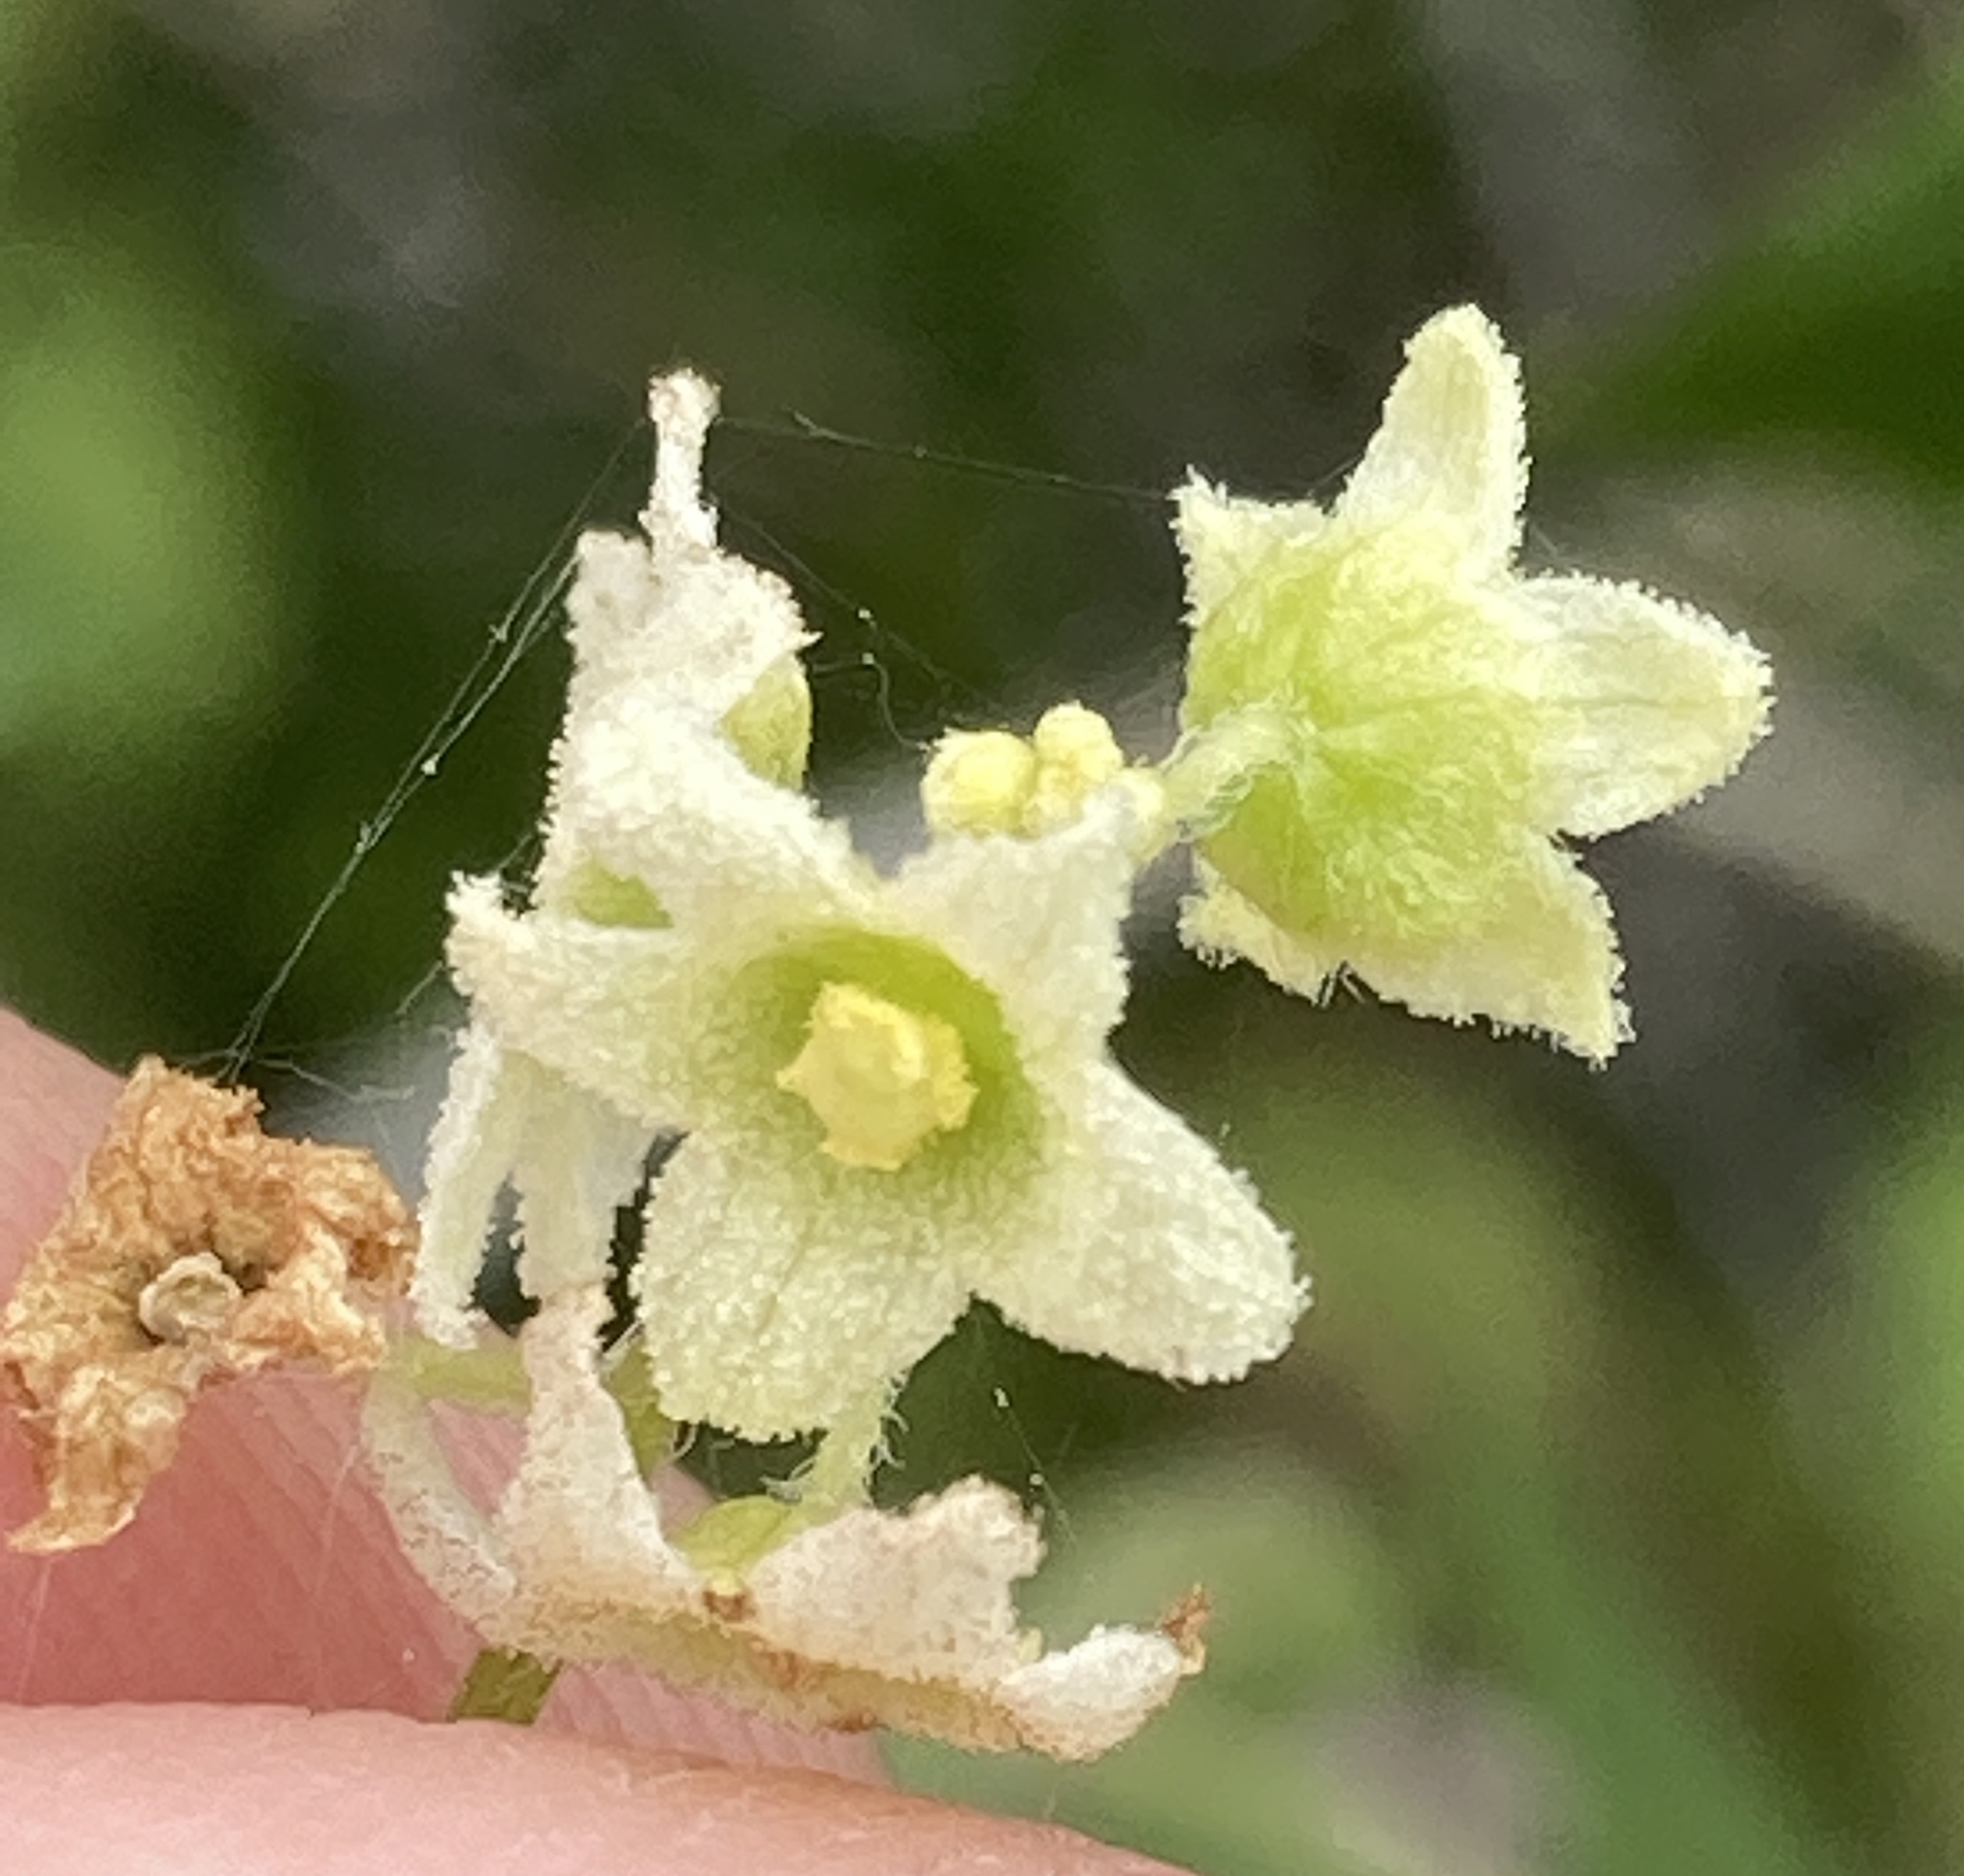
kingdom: Plantae
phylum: Tracheophyta
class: Magnoliopsida
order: Cucurbitales
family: Cucurbitaceae
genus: Marah
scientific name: Marah fabacea
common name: California manroot
